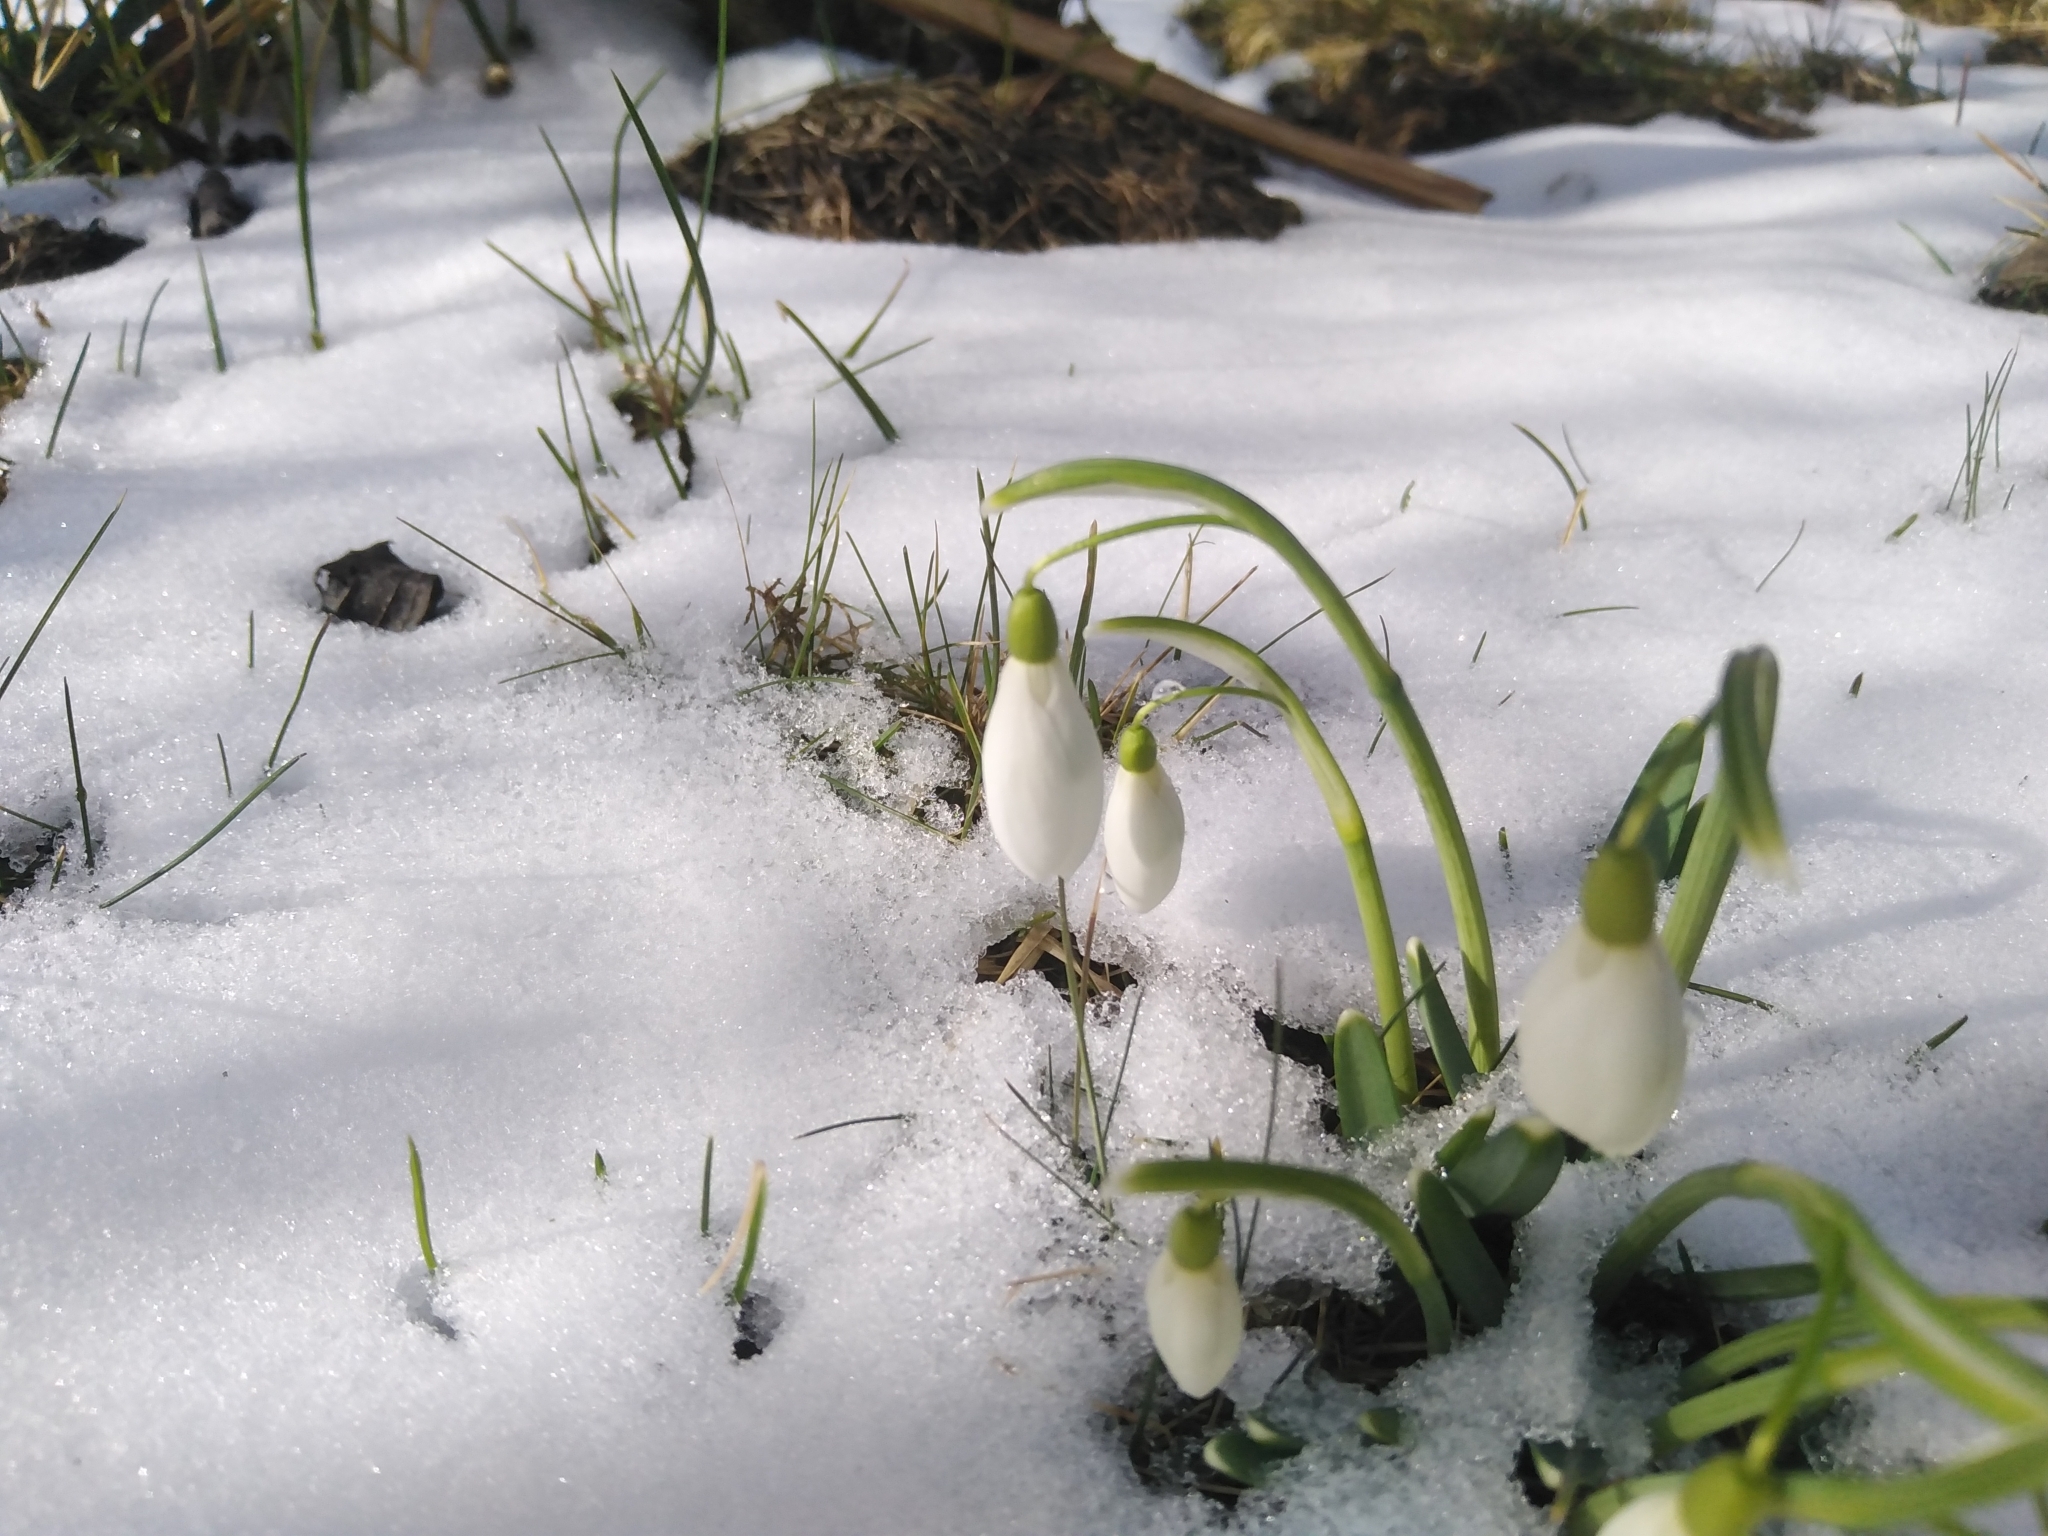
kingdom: Plantae
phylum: Tracheophyta
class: Liliopsida
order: Asparagales
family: Amaryllidaceae
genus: Galanthus
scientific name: Galanthus nivalis
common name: Snowdrop
